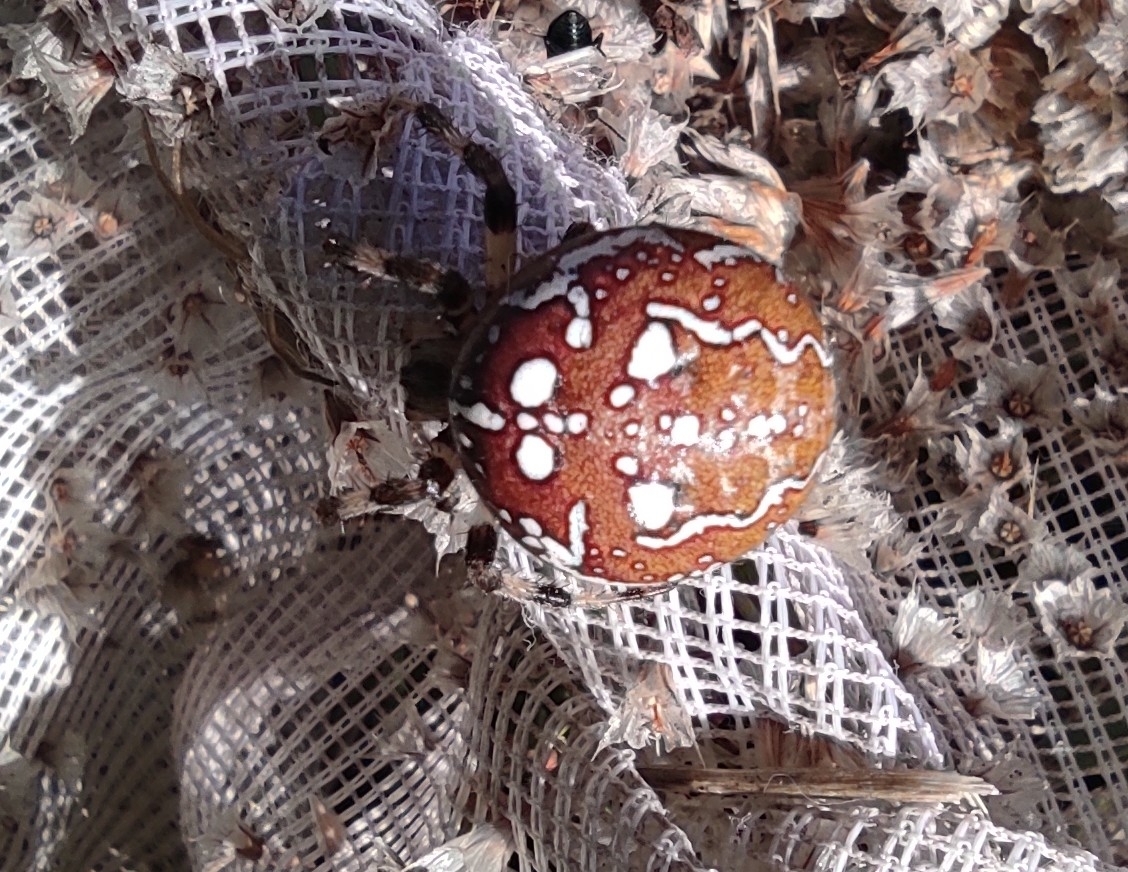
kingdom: Animalia
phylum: Arthropoda
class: Arachnida
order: Araneae
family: Araneidae
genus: Araneus
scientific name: Araneus quadratus
